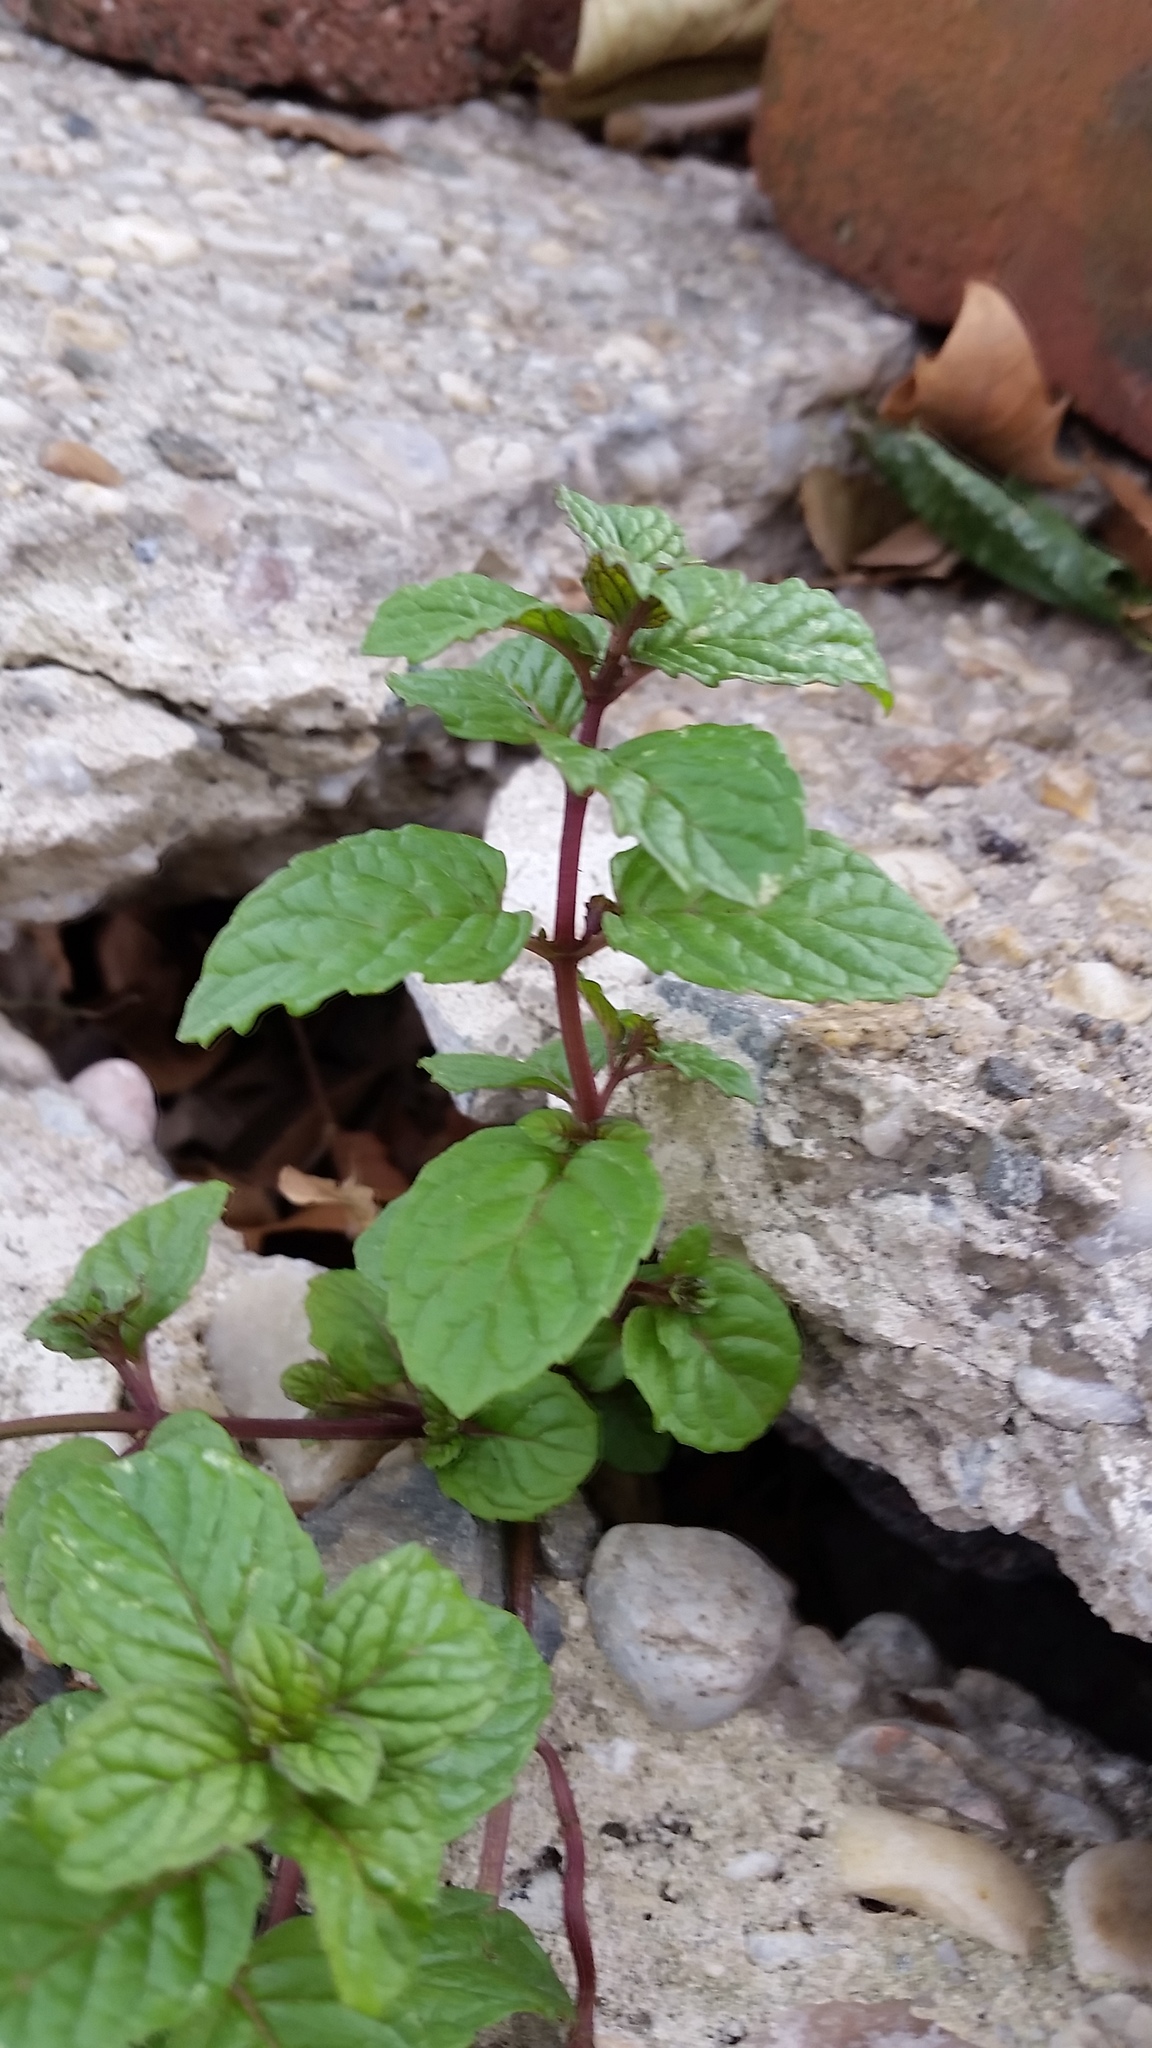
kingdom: Plantae
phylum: Tracheophyta
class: Magnoliopsida
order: Lamiales
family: Lamiaceae
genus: Mentha
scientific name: Mentha spicata
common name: Spearmint
